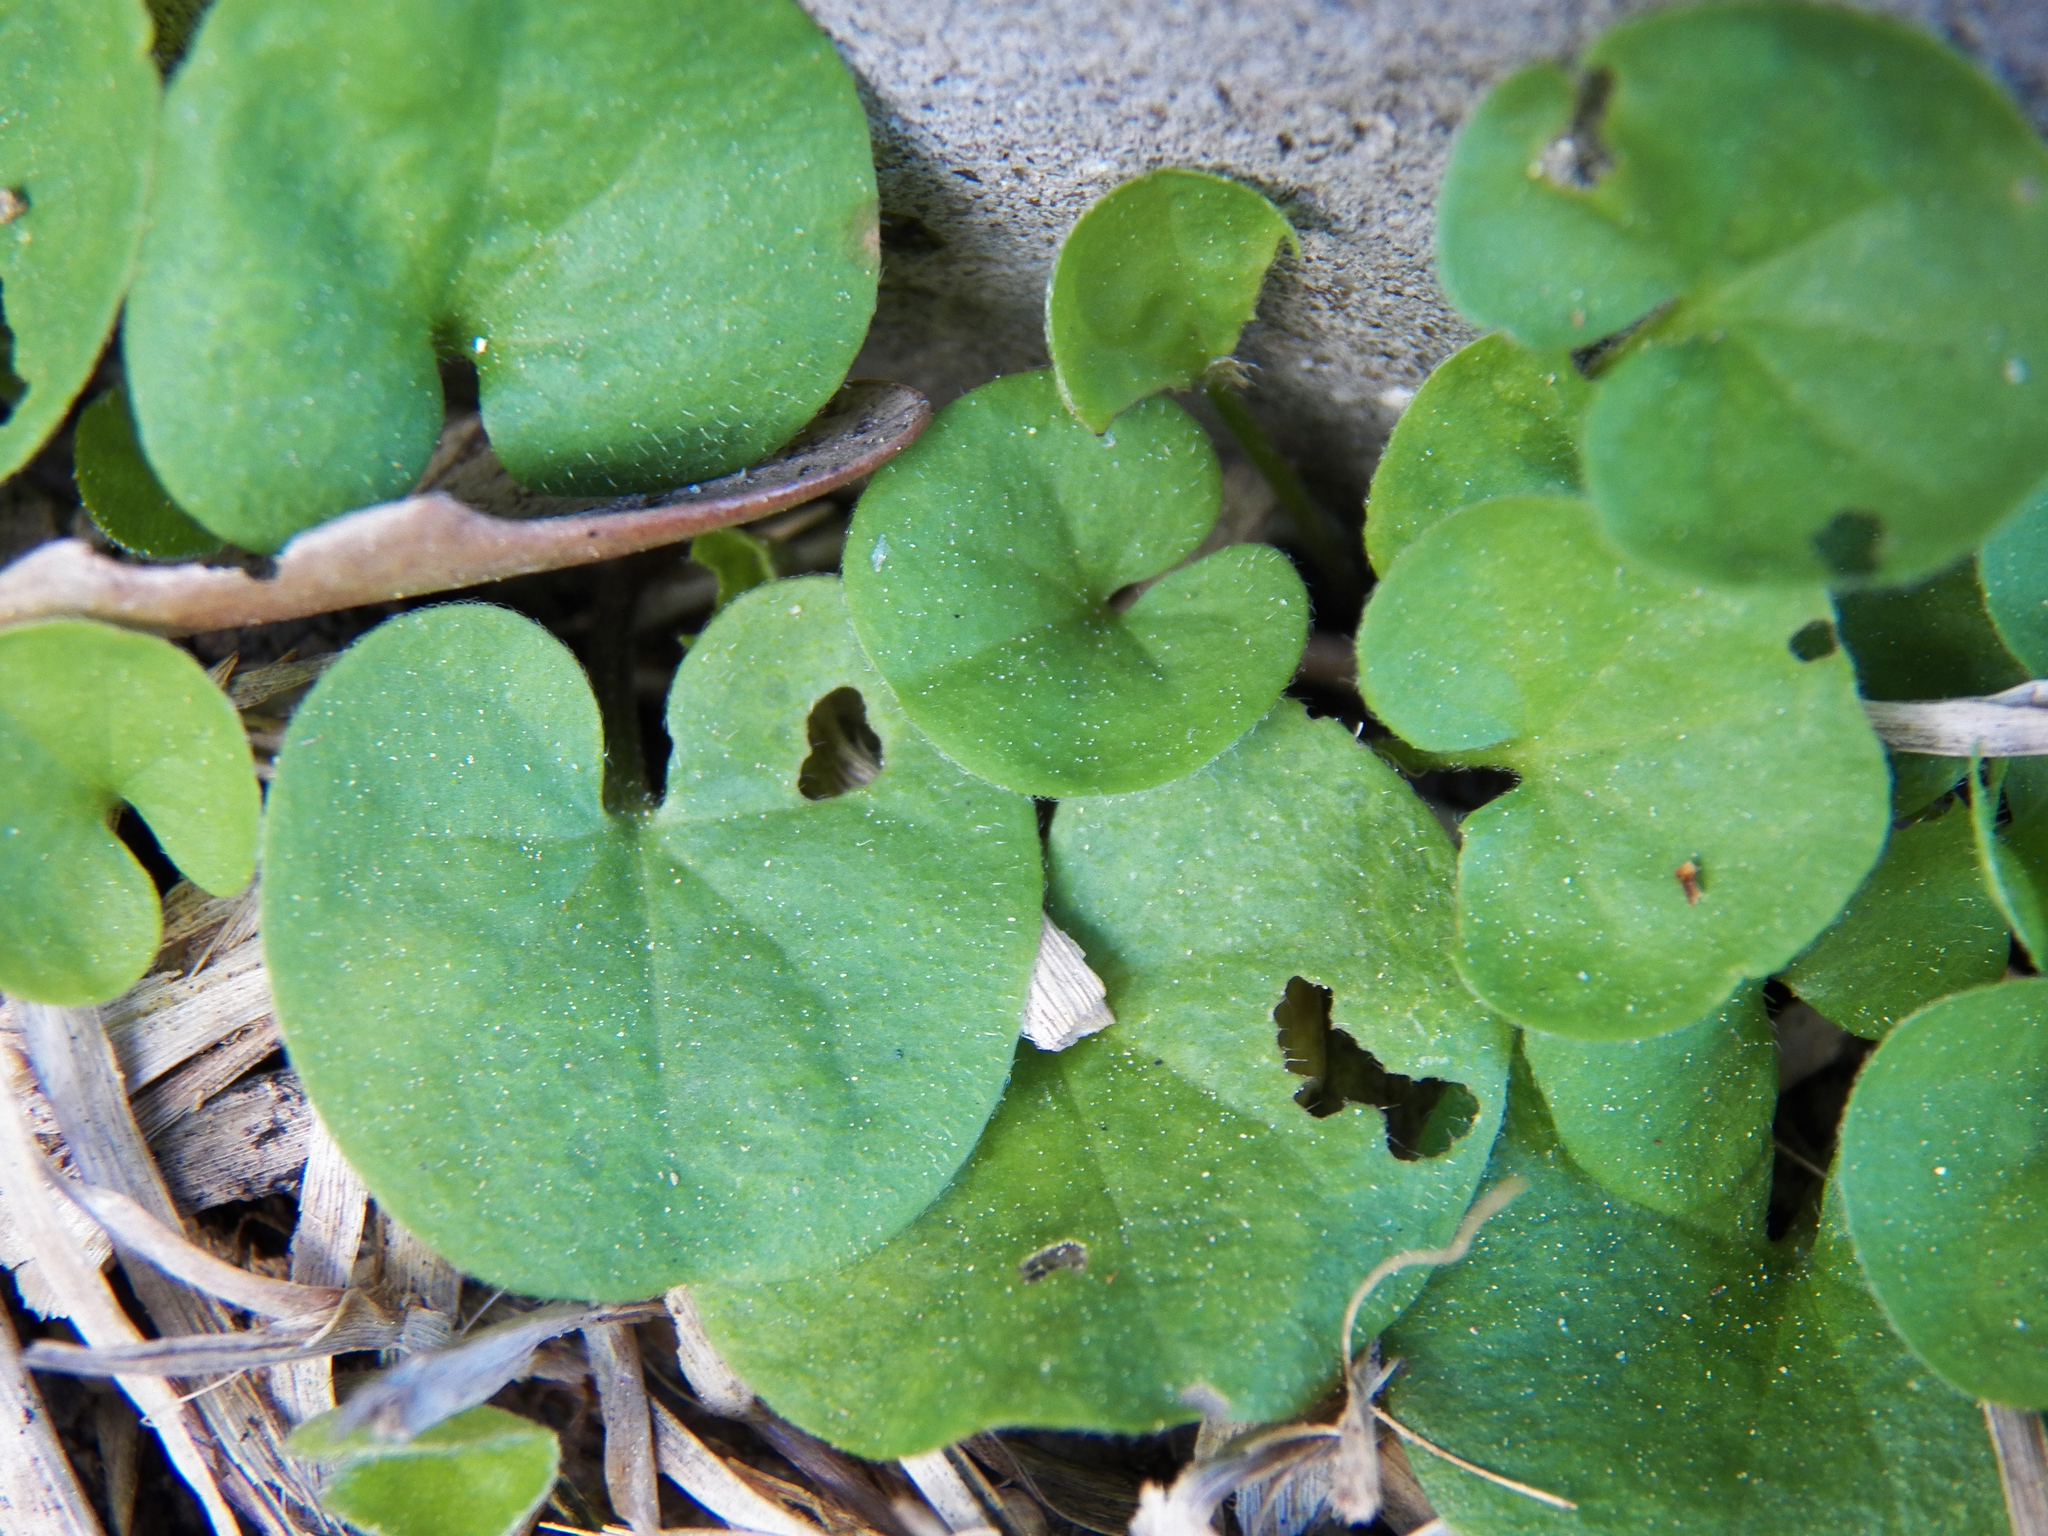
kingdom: Plantae
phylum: Tracheophyta
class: Magnoliopsida
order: Solanales
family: Convolvulaceae
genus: Dichondra
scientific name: Dichondra carolinensis
